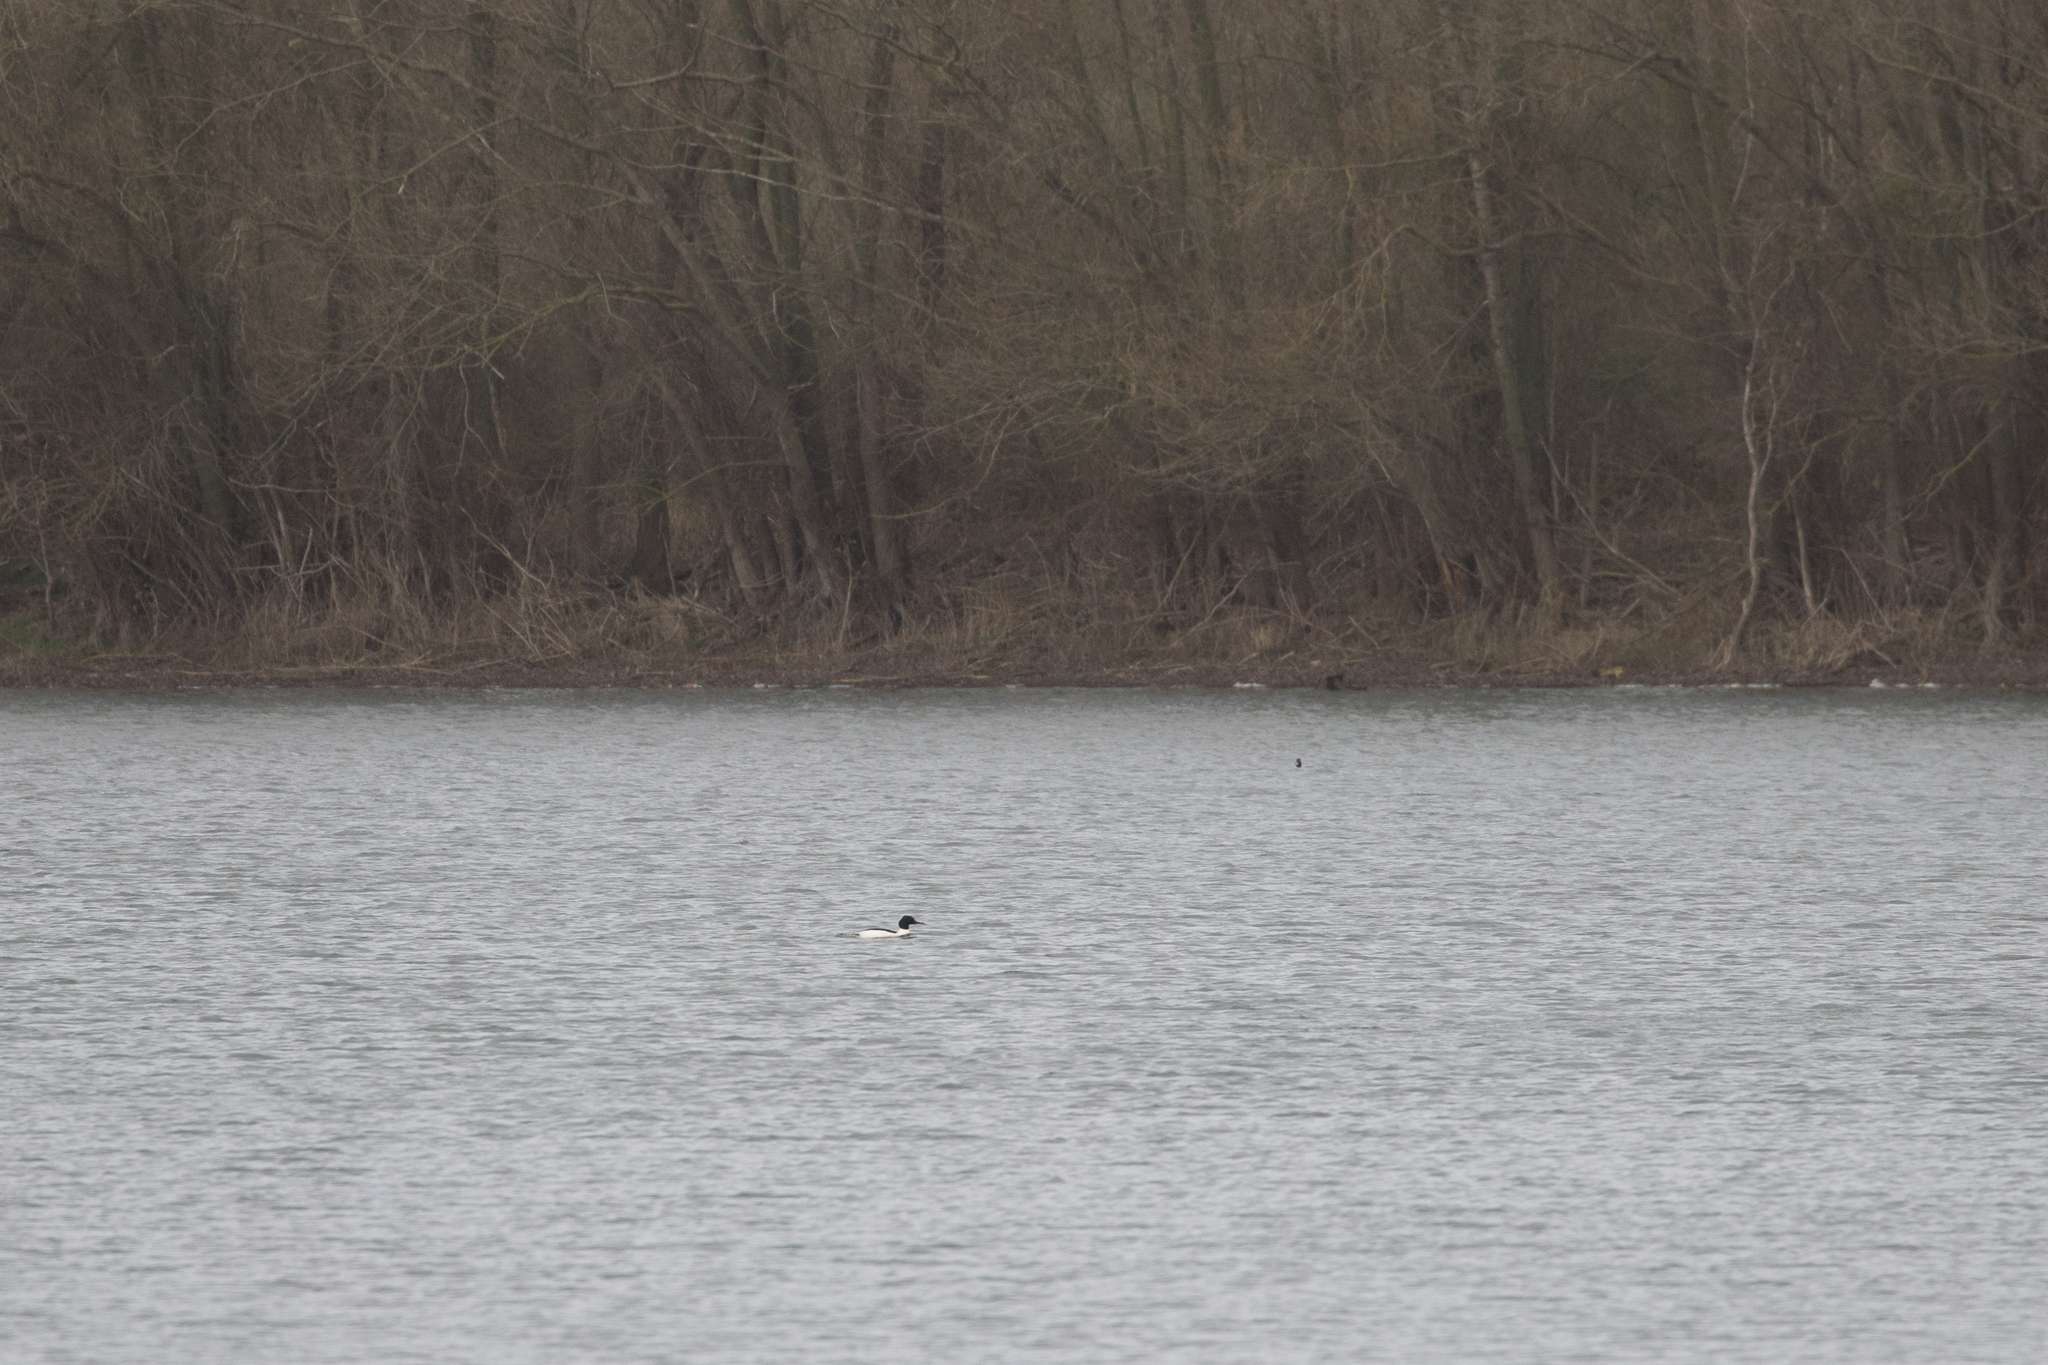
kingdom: Animalia
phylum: Chordata
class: Aves
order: Anseriformes
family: Anatidae
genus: Mergus
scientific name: Mergus merganser
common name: Common merganser
